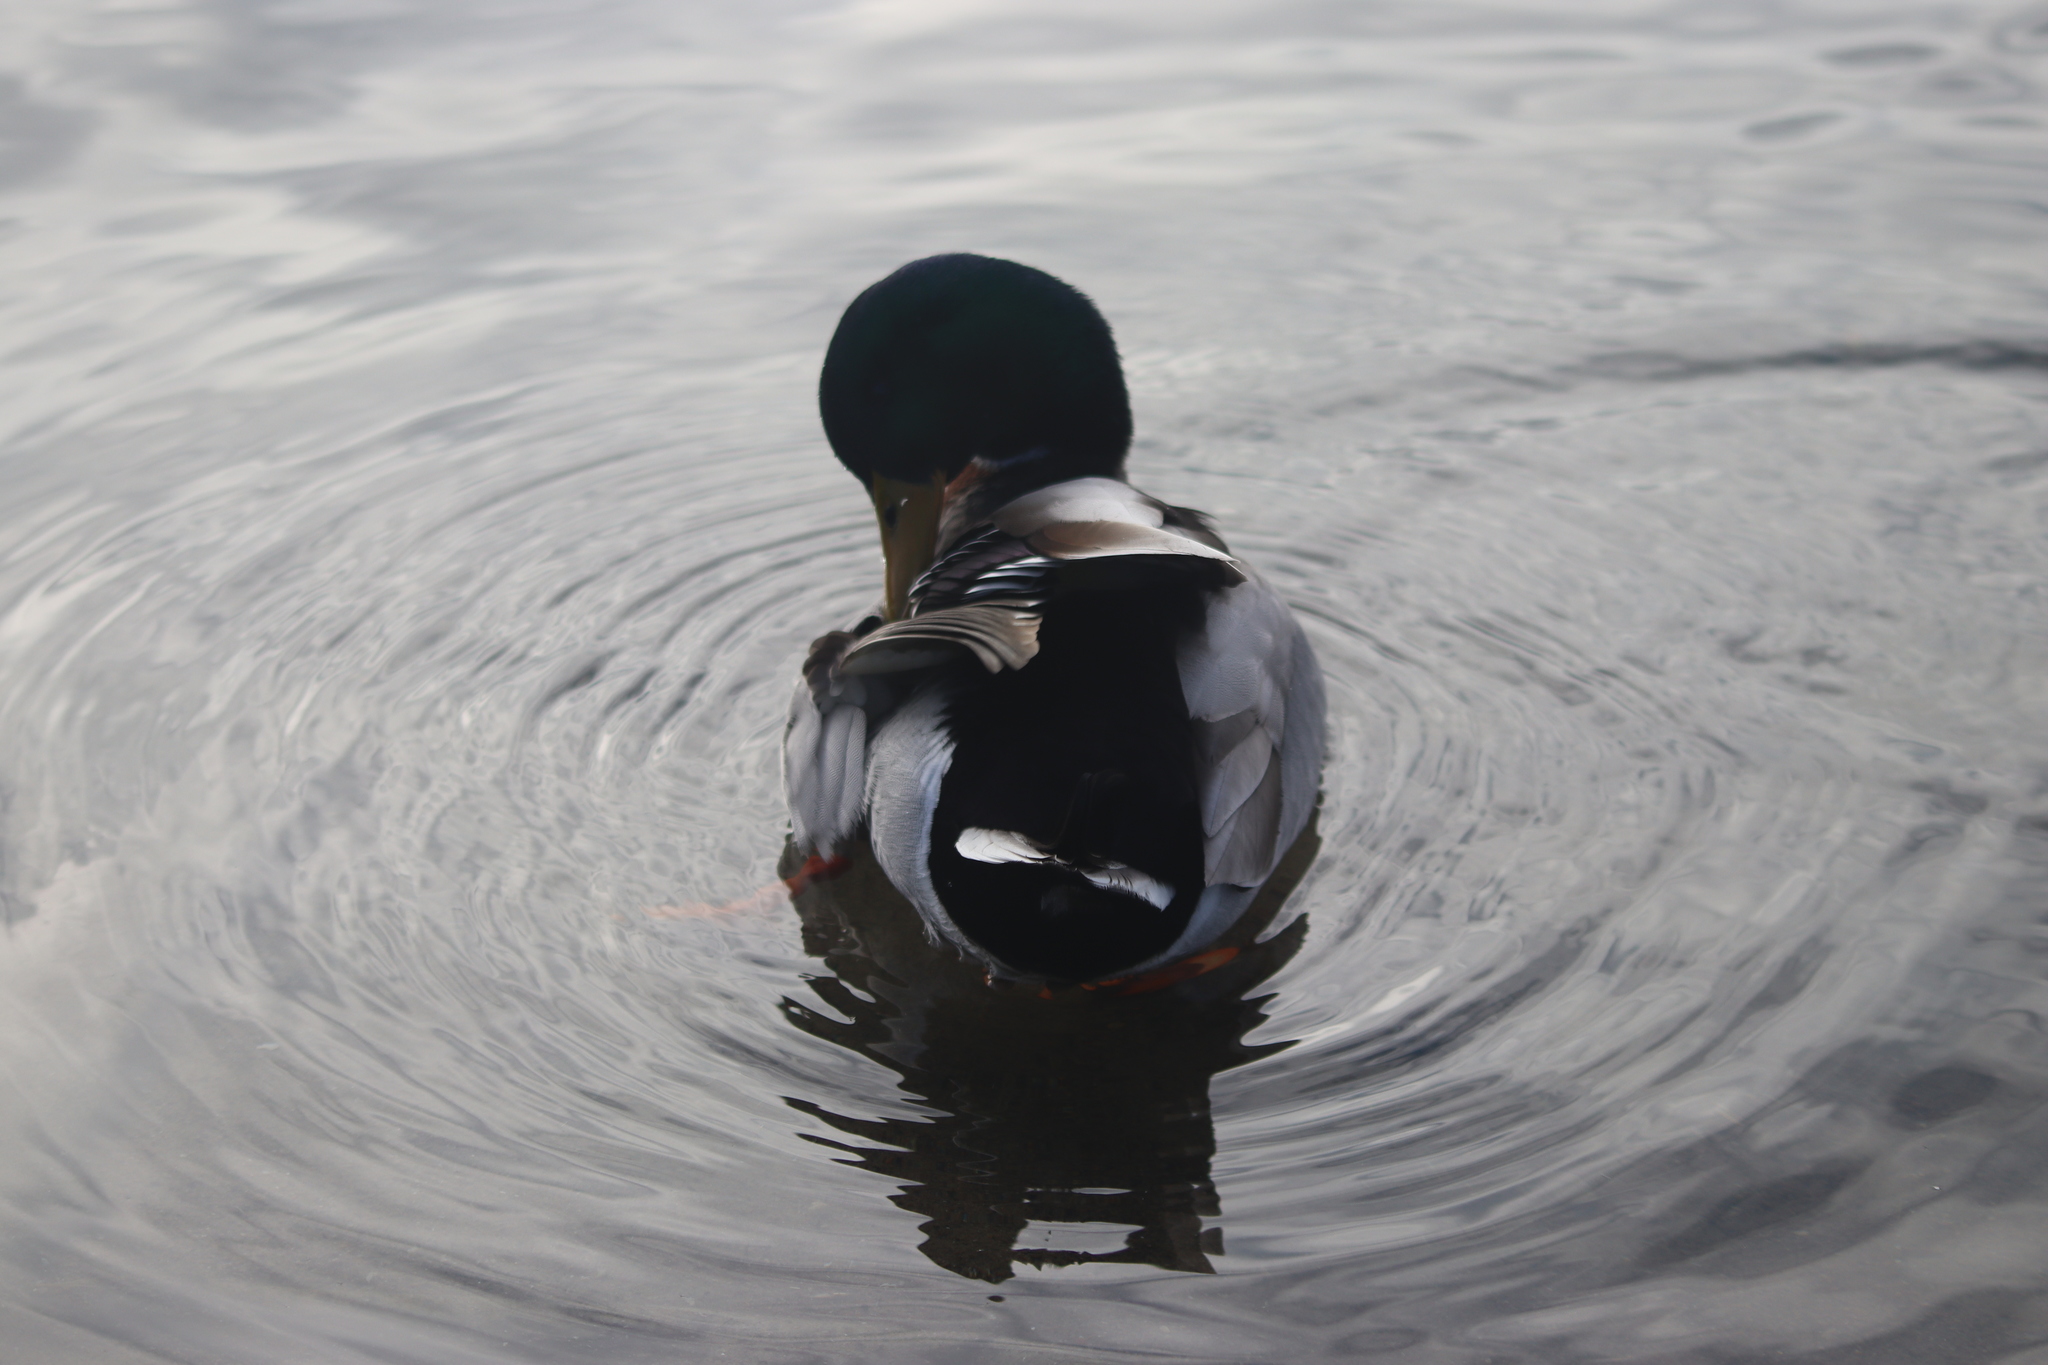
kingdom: Animalia
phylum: Chordata
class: Aves
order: Anseriformes
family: Anatidae
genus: Anas
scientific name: Anas platyrhynchos
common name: Mallard
